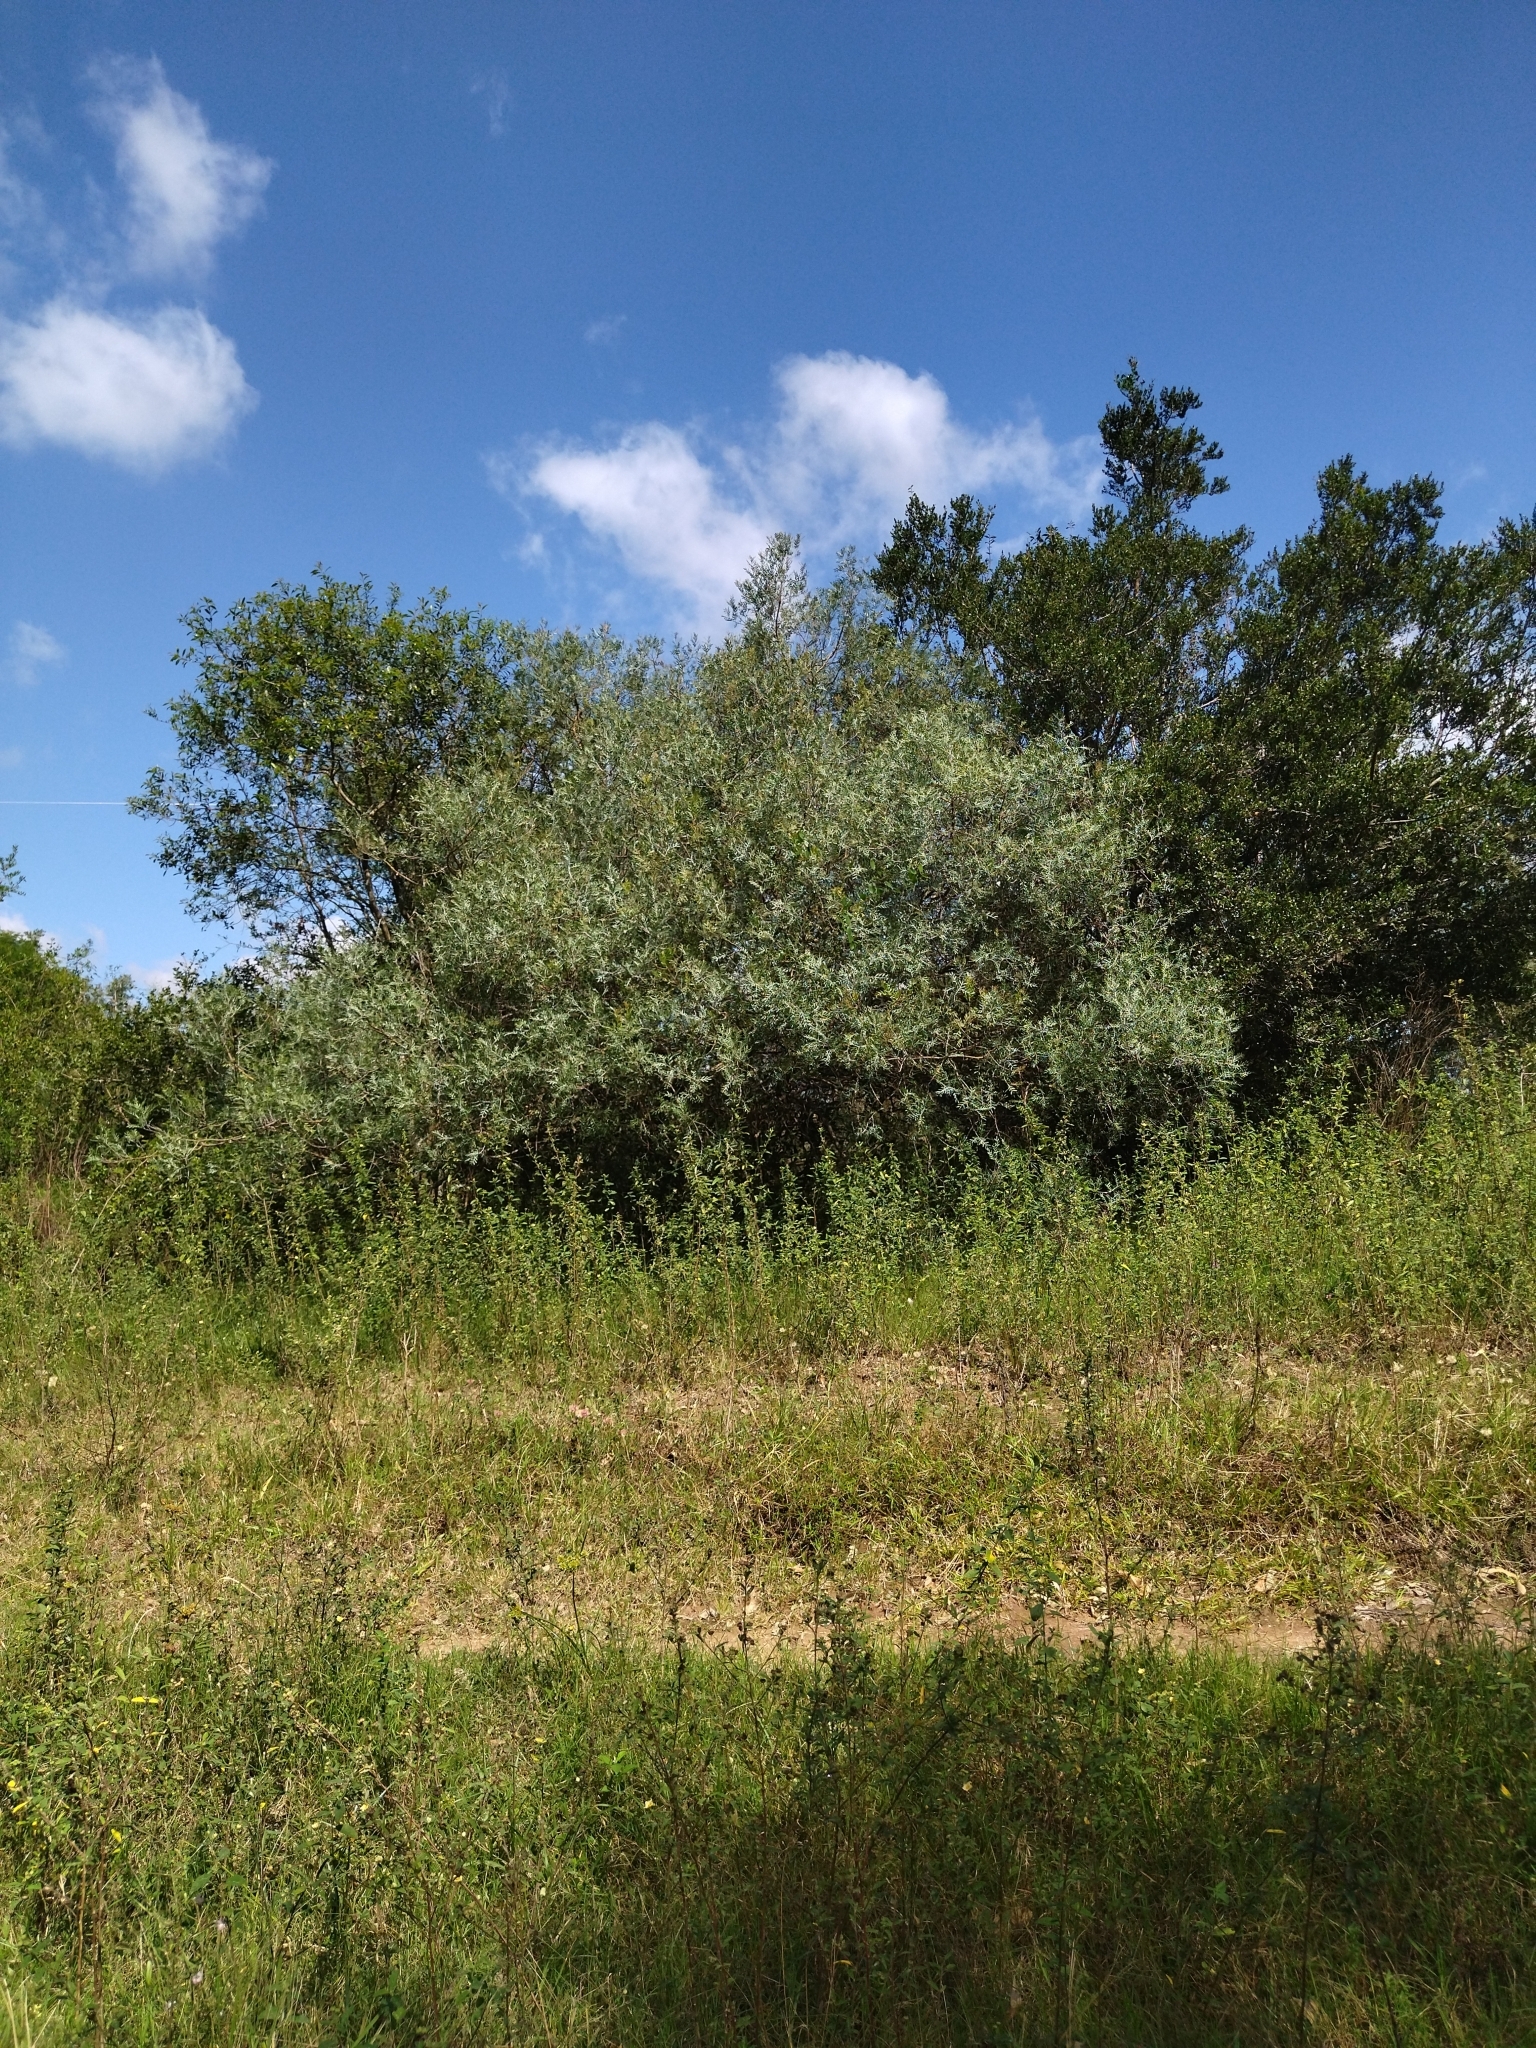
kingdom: Plantae
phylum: Tracheophyta
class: Magnoliopsida
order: Sapindales
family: Anacardiaceae
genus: Schinus
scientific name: Schinus lentiscifolia
